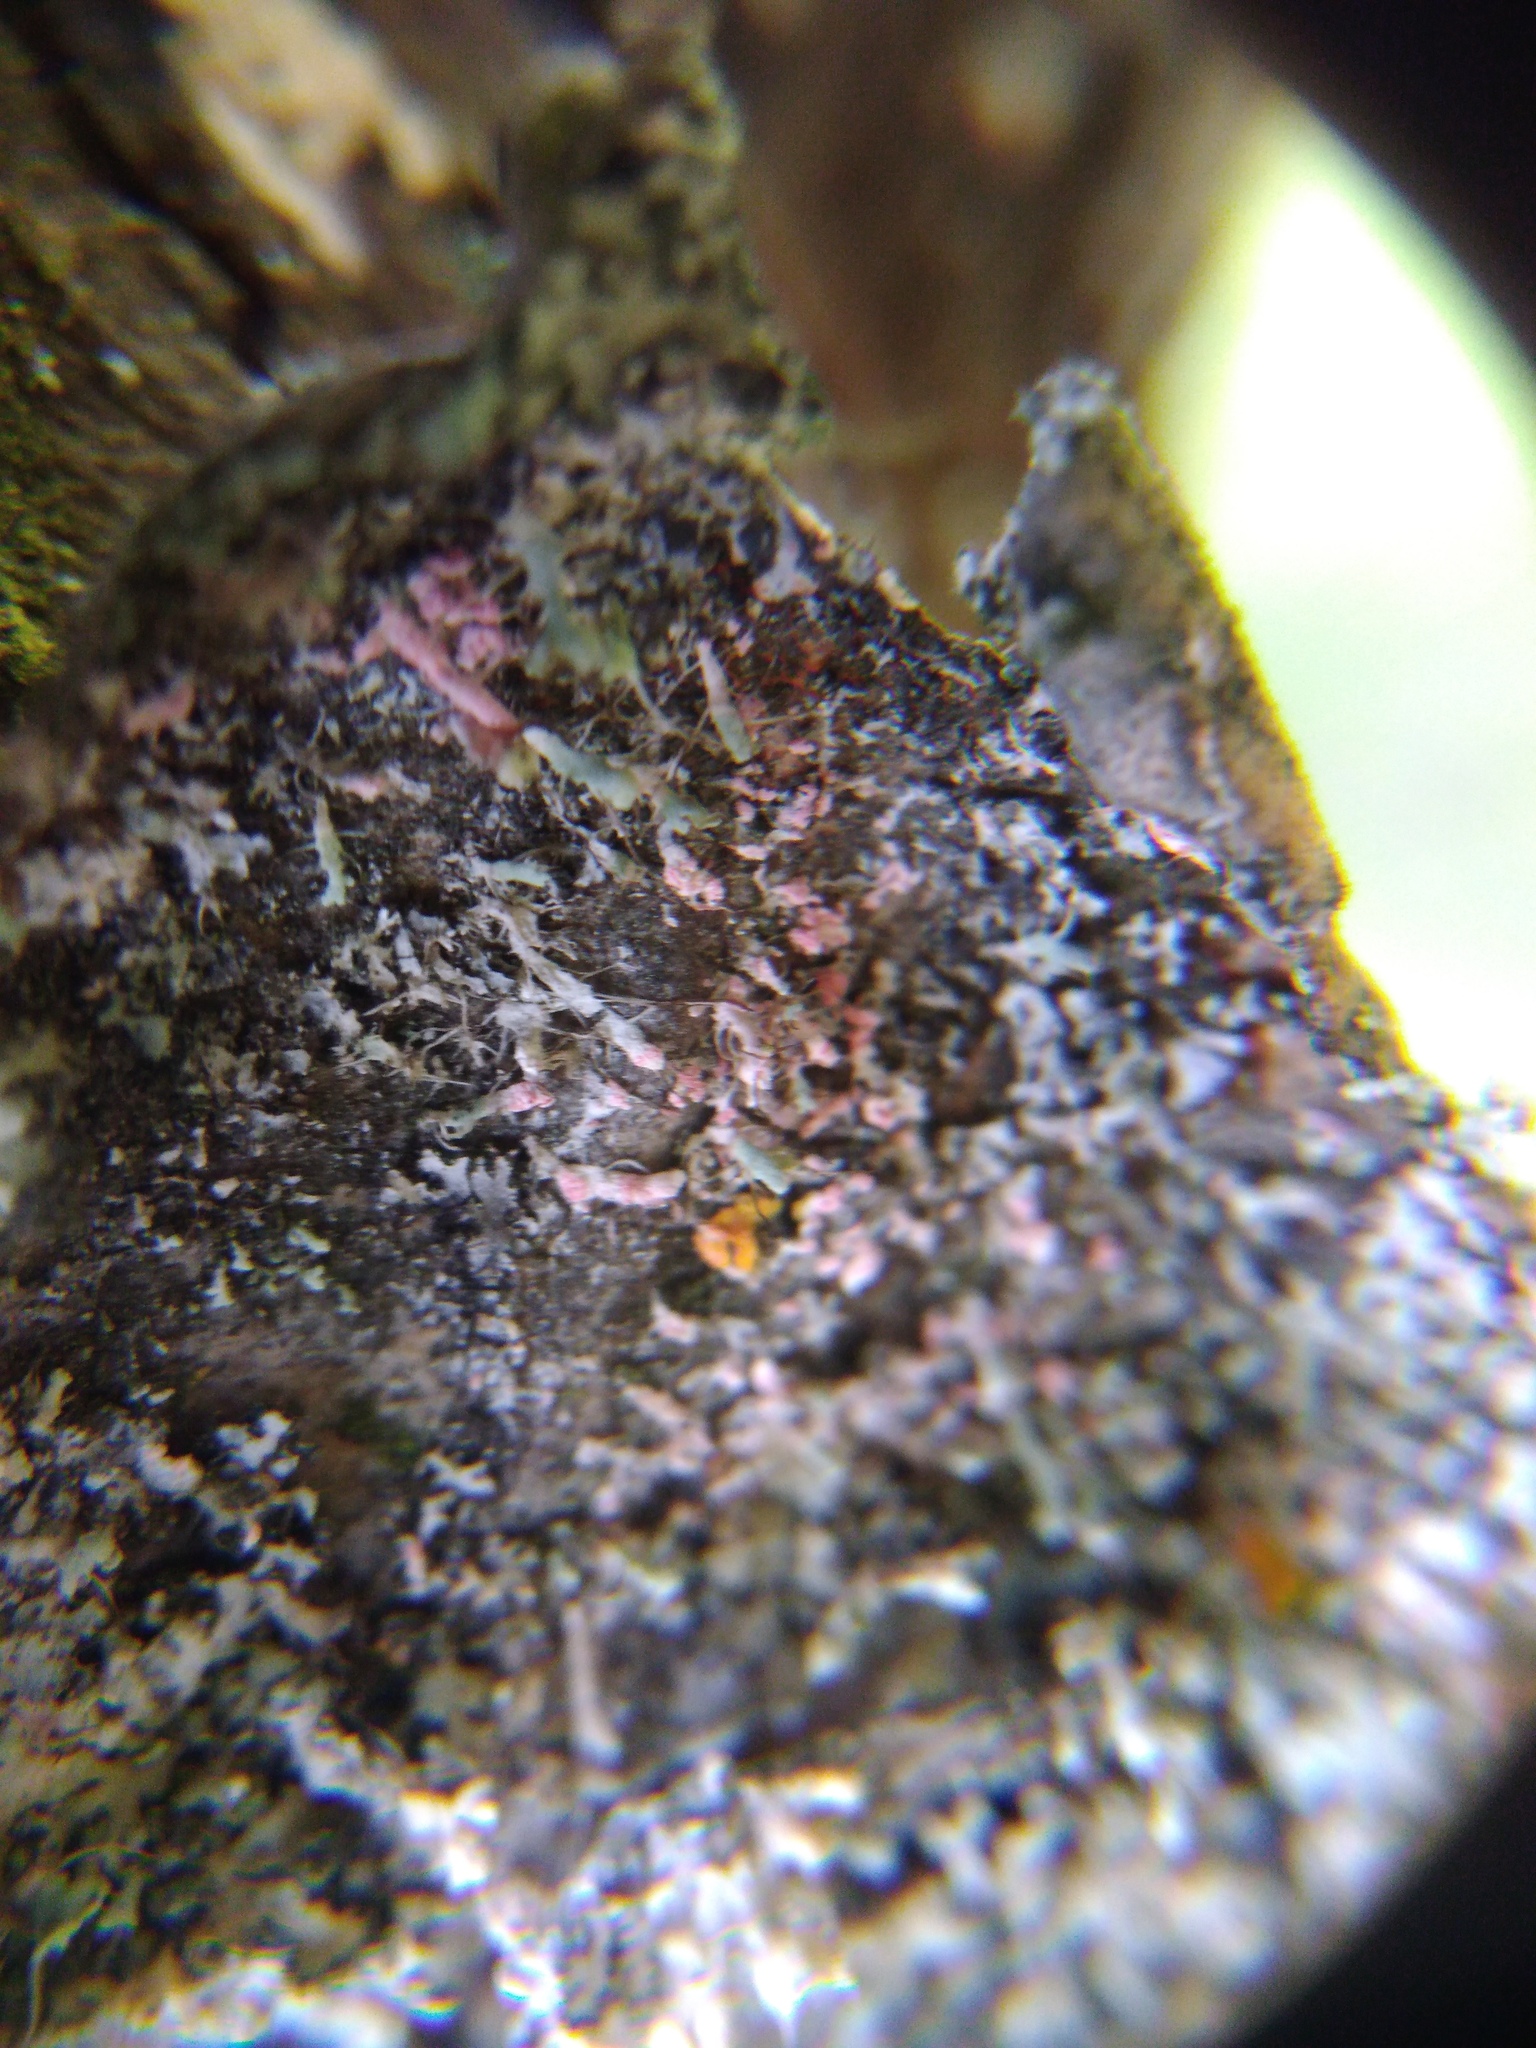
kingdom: Fungi
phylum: Basidiomycota
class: Agaricomycetes
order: Corticiales
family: Corticiaceae
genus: Laetisaria
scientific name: Laetisaria lichenicola
